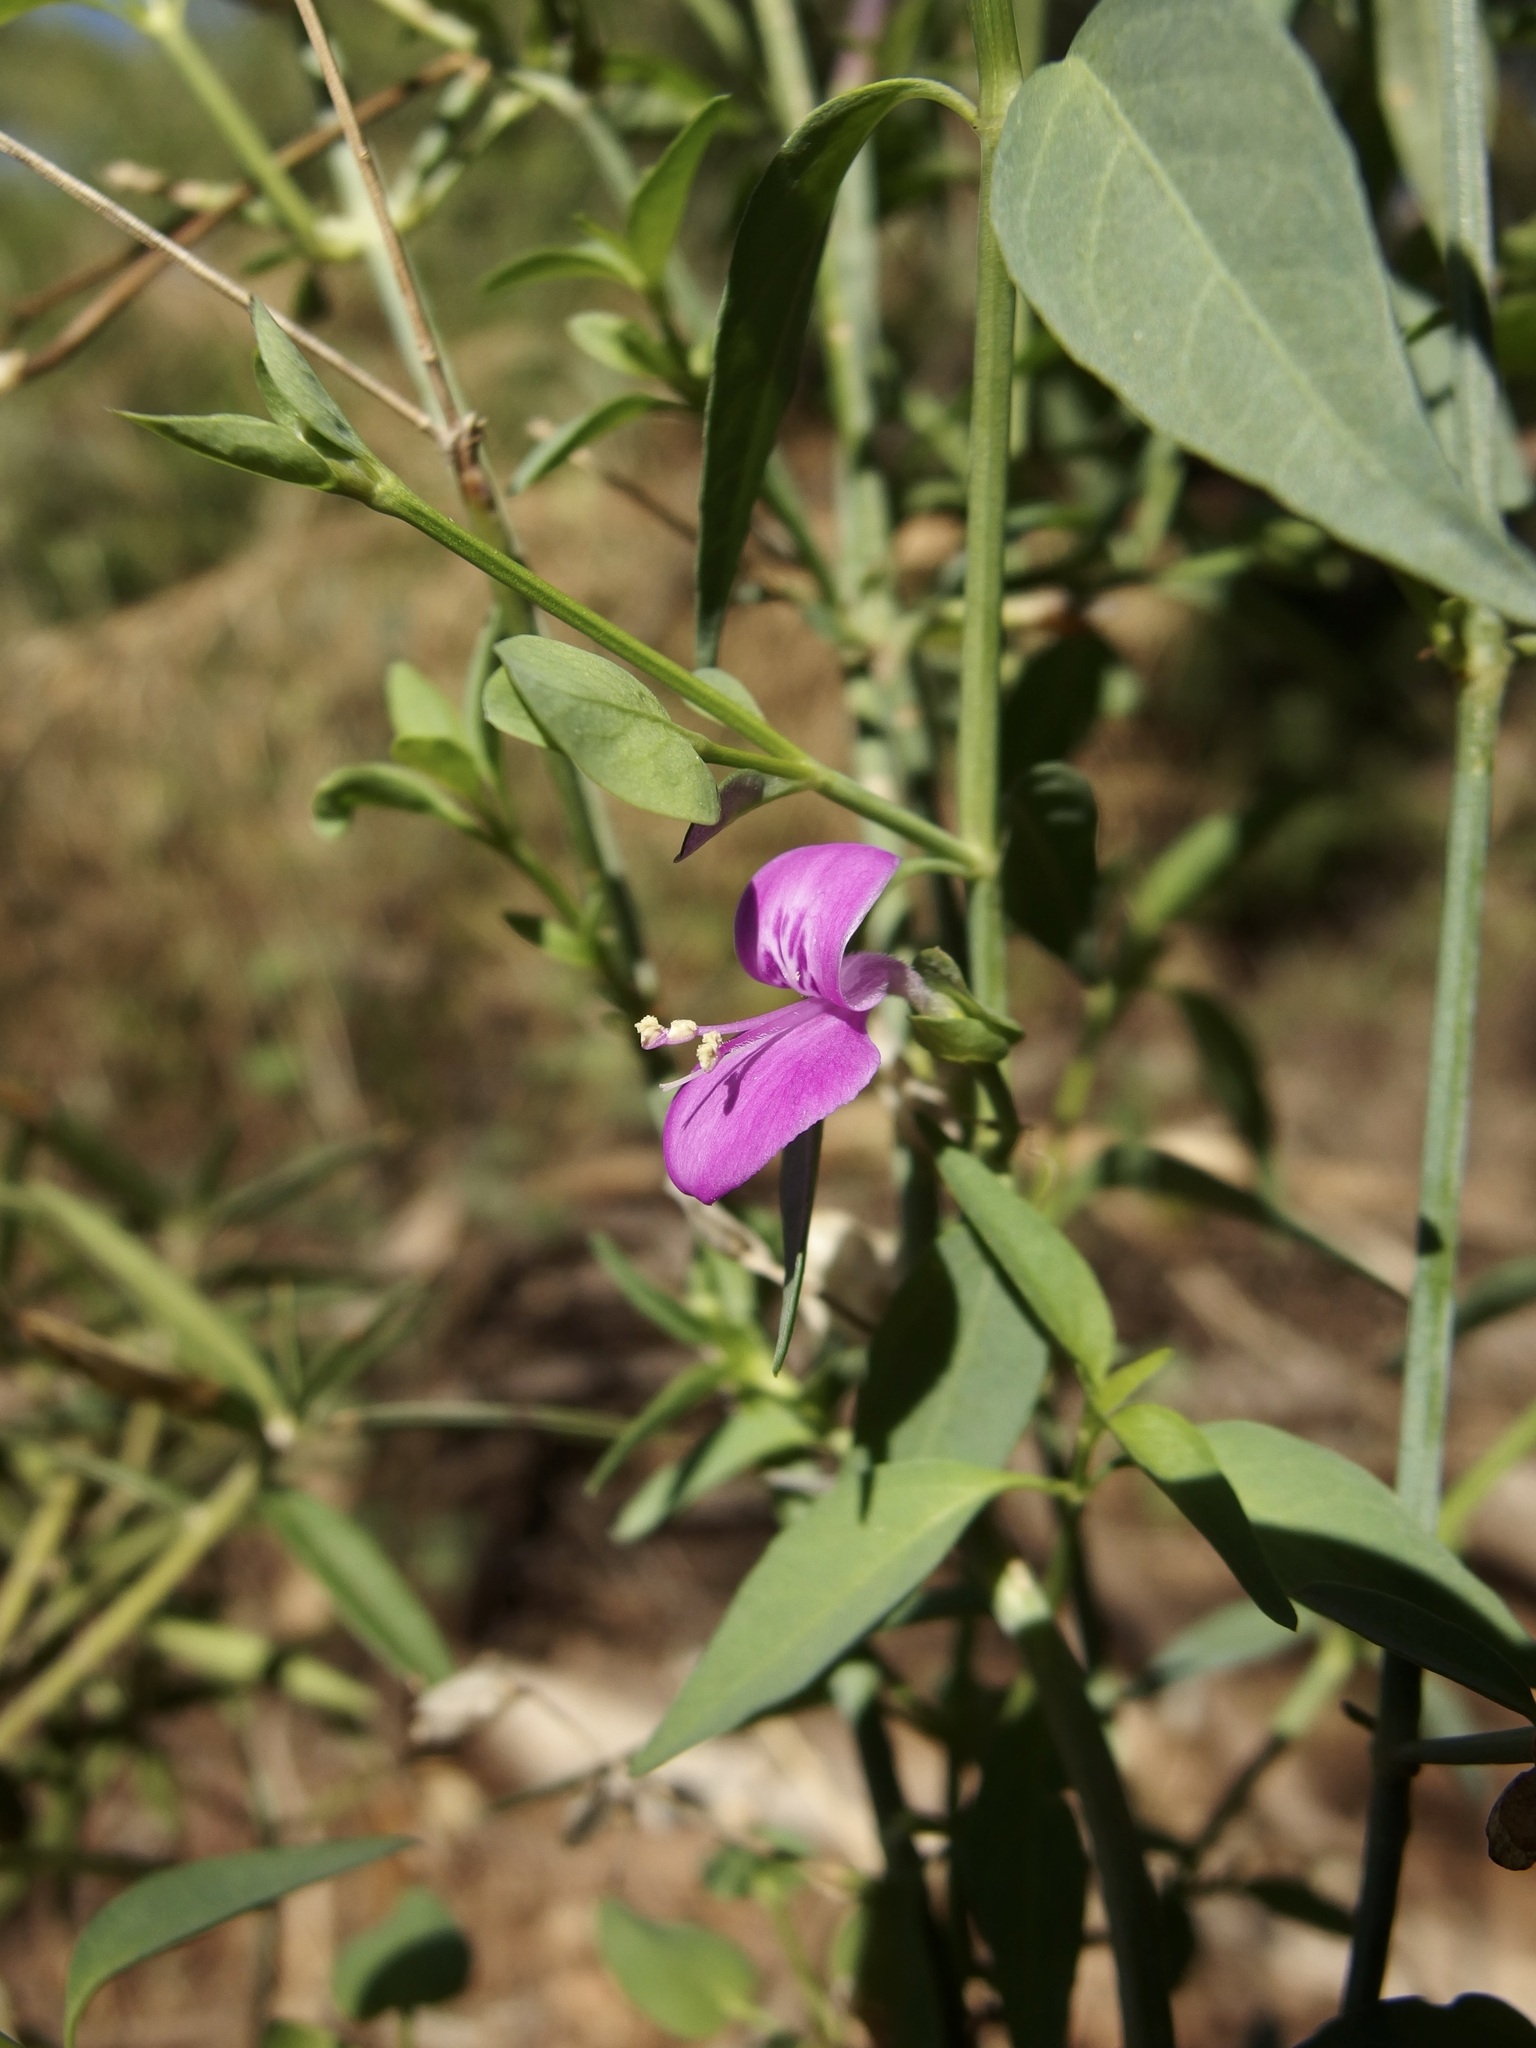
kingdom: Plantae
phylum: Tracheophyta
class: Magnoliopsida
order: Lamiales
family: Acanthaceae
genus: Dicliptera
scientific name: Dicliptera resupinata
